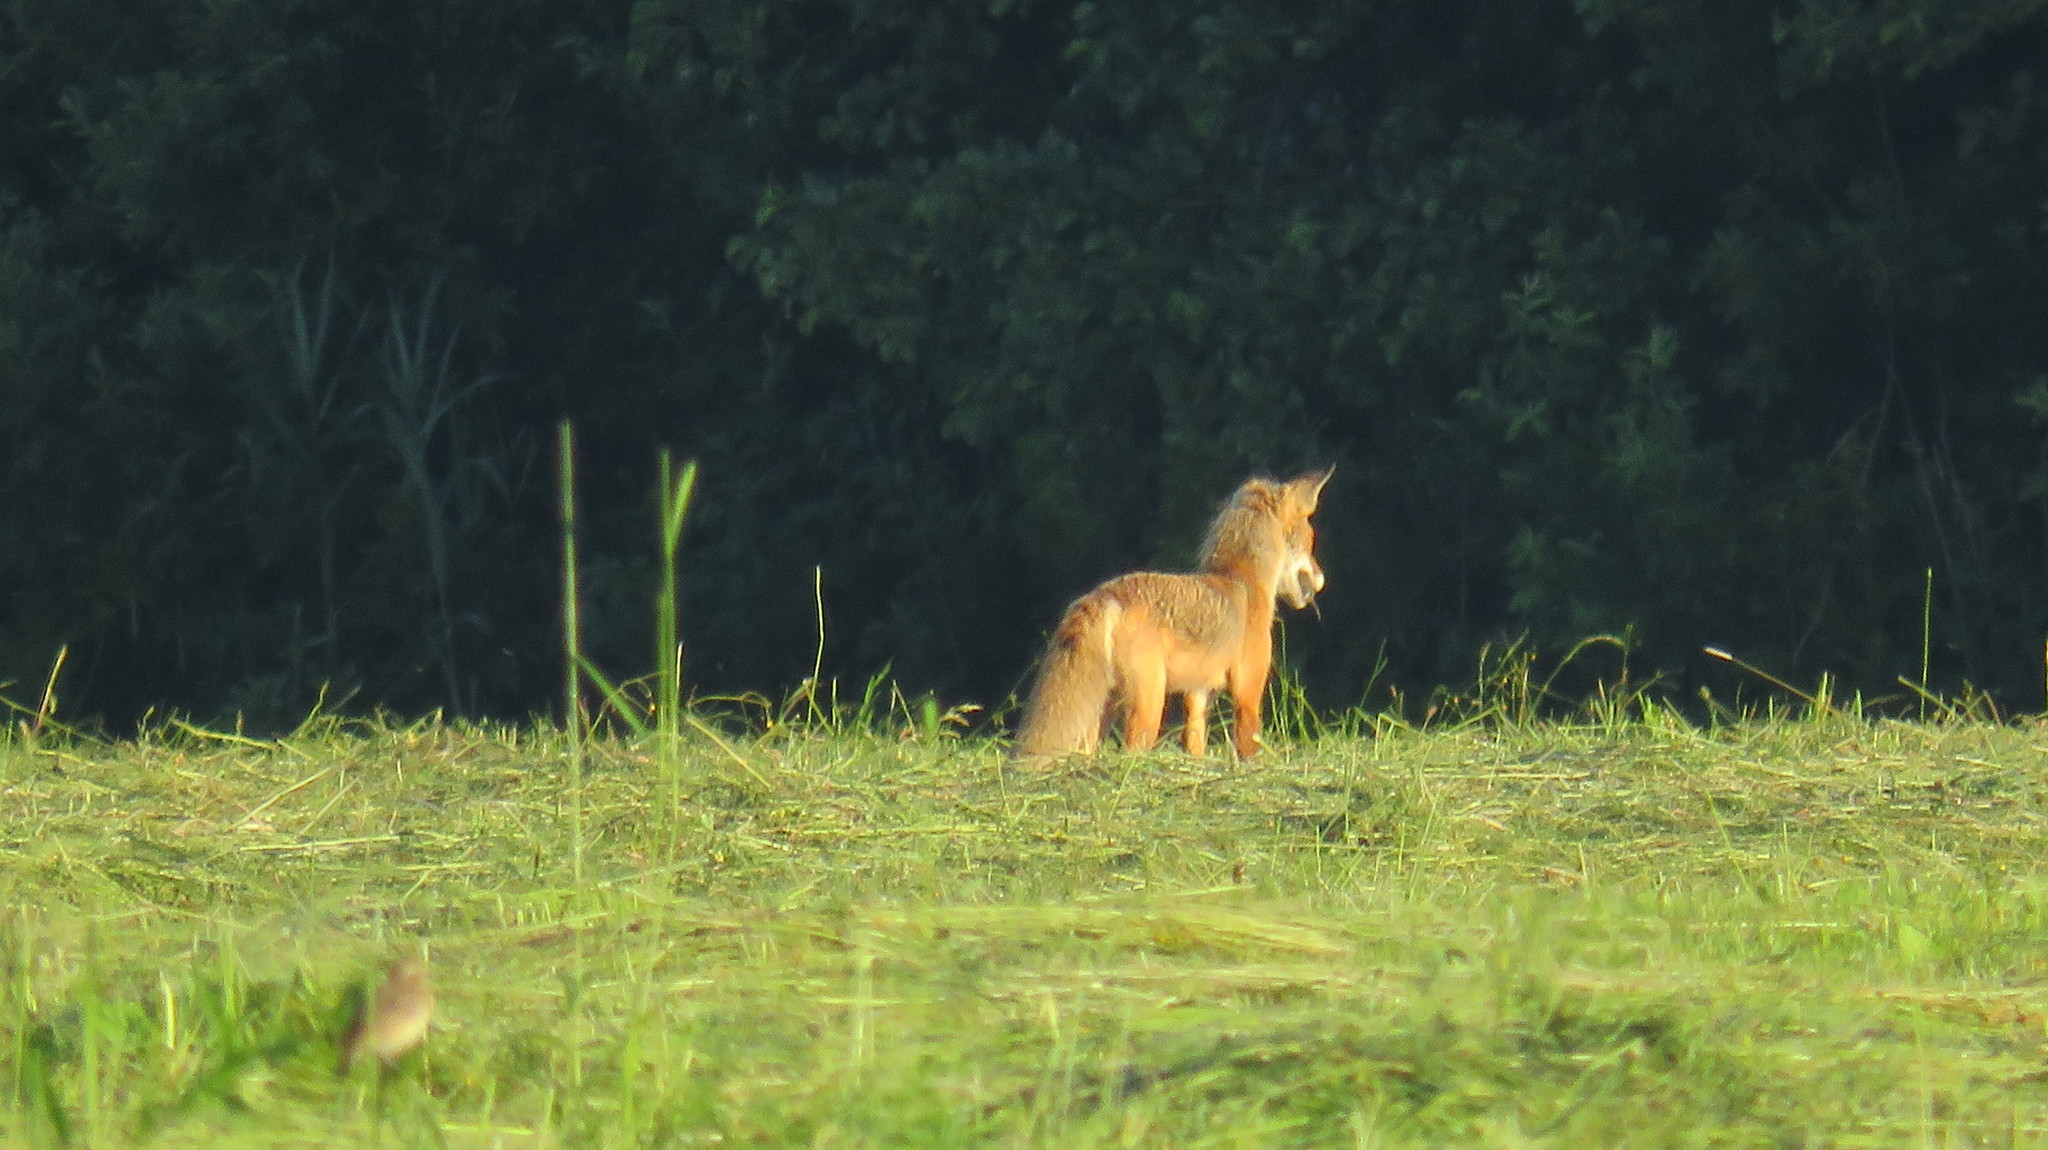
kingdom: Animalia
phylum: Chordata
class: Mammalia
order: Carnivora
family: Canidae
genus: Vulpes
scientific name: Vulpes vulpes
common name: Red fox
